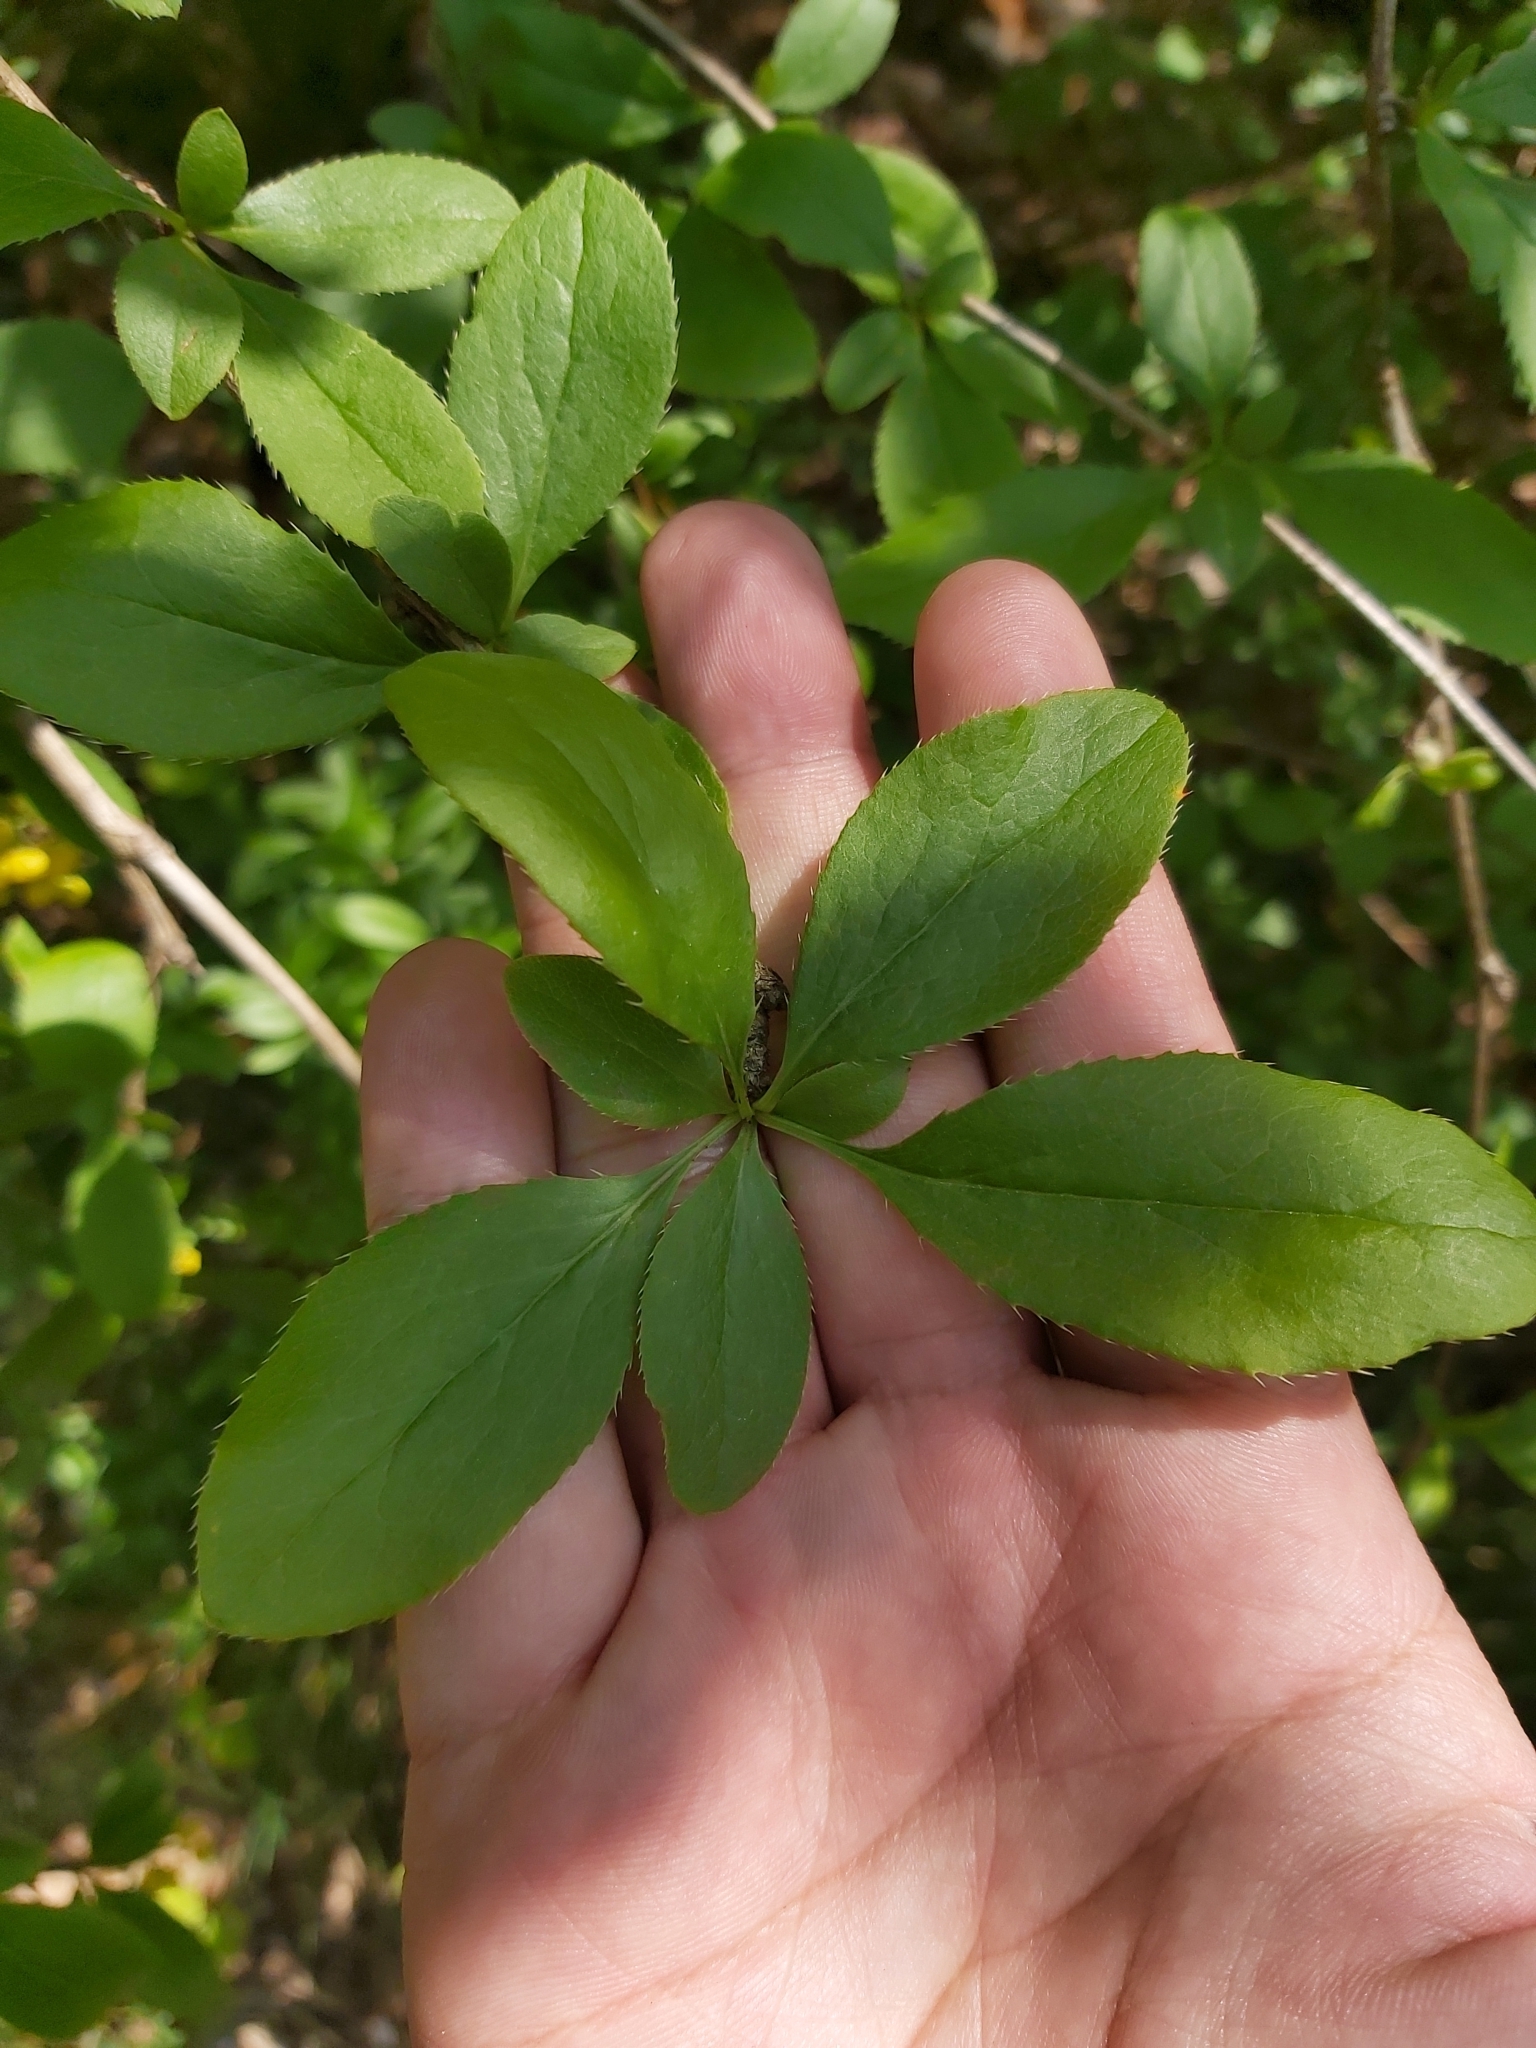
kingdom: Plantae
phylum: Tracheophyta
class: Magnoliopsida
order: Ranunculales
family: Berberidaceae
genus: Berberis
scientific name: Berberis vulgaris
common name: Barberry
